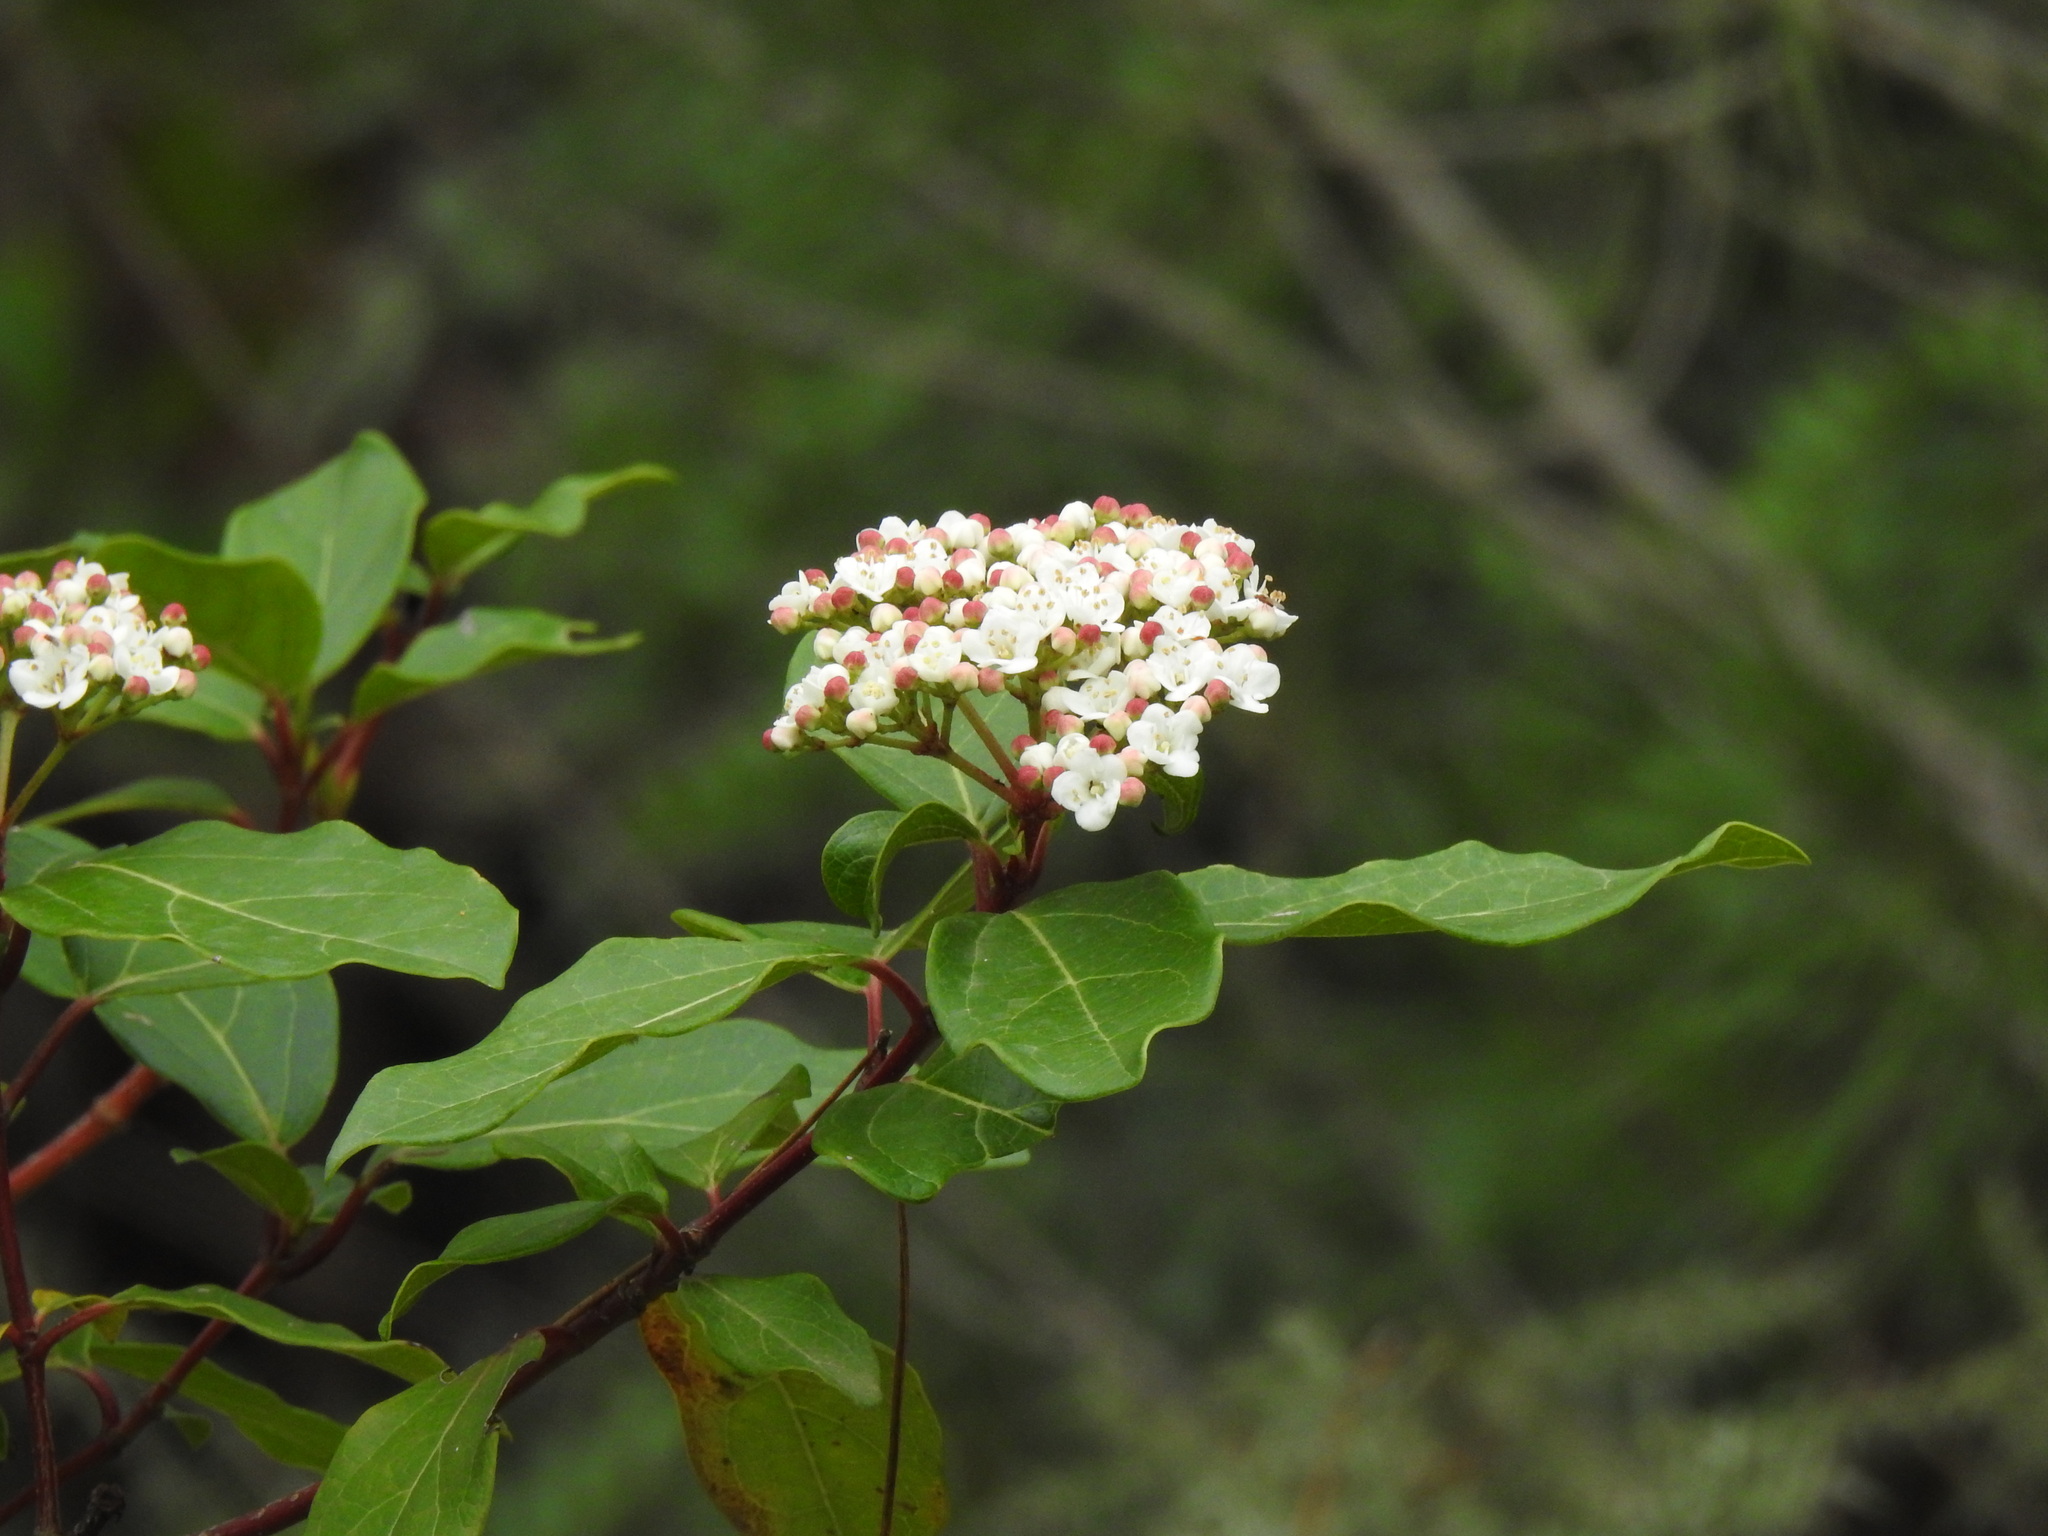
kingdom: Plantae
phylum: Tracheophyta
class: Magnoliopsida
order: Dipsacales
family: Viburnaceae
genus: Viburnum
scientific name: Viburnum tinus
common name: Laurustinus
